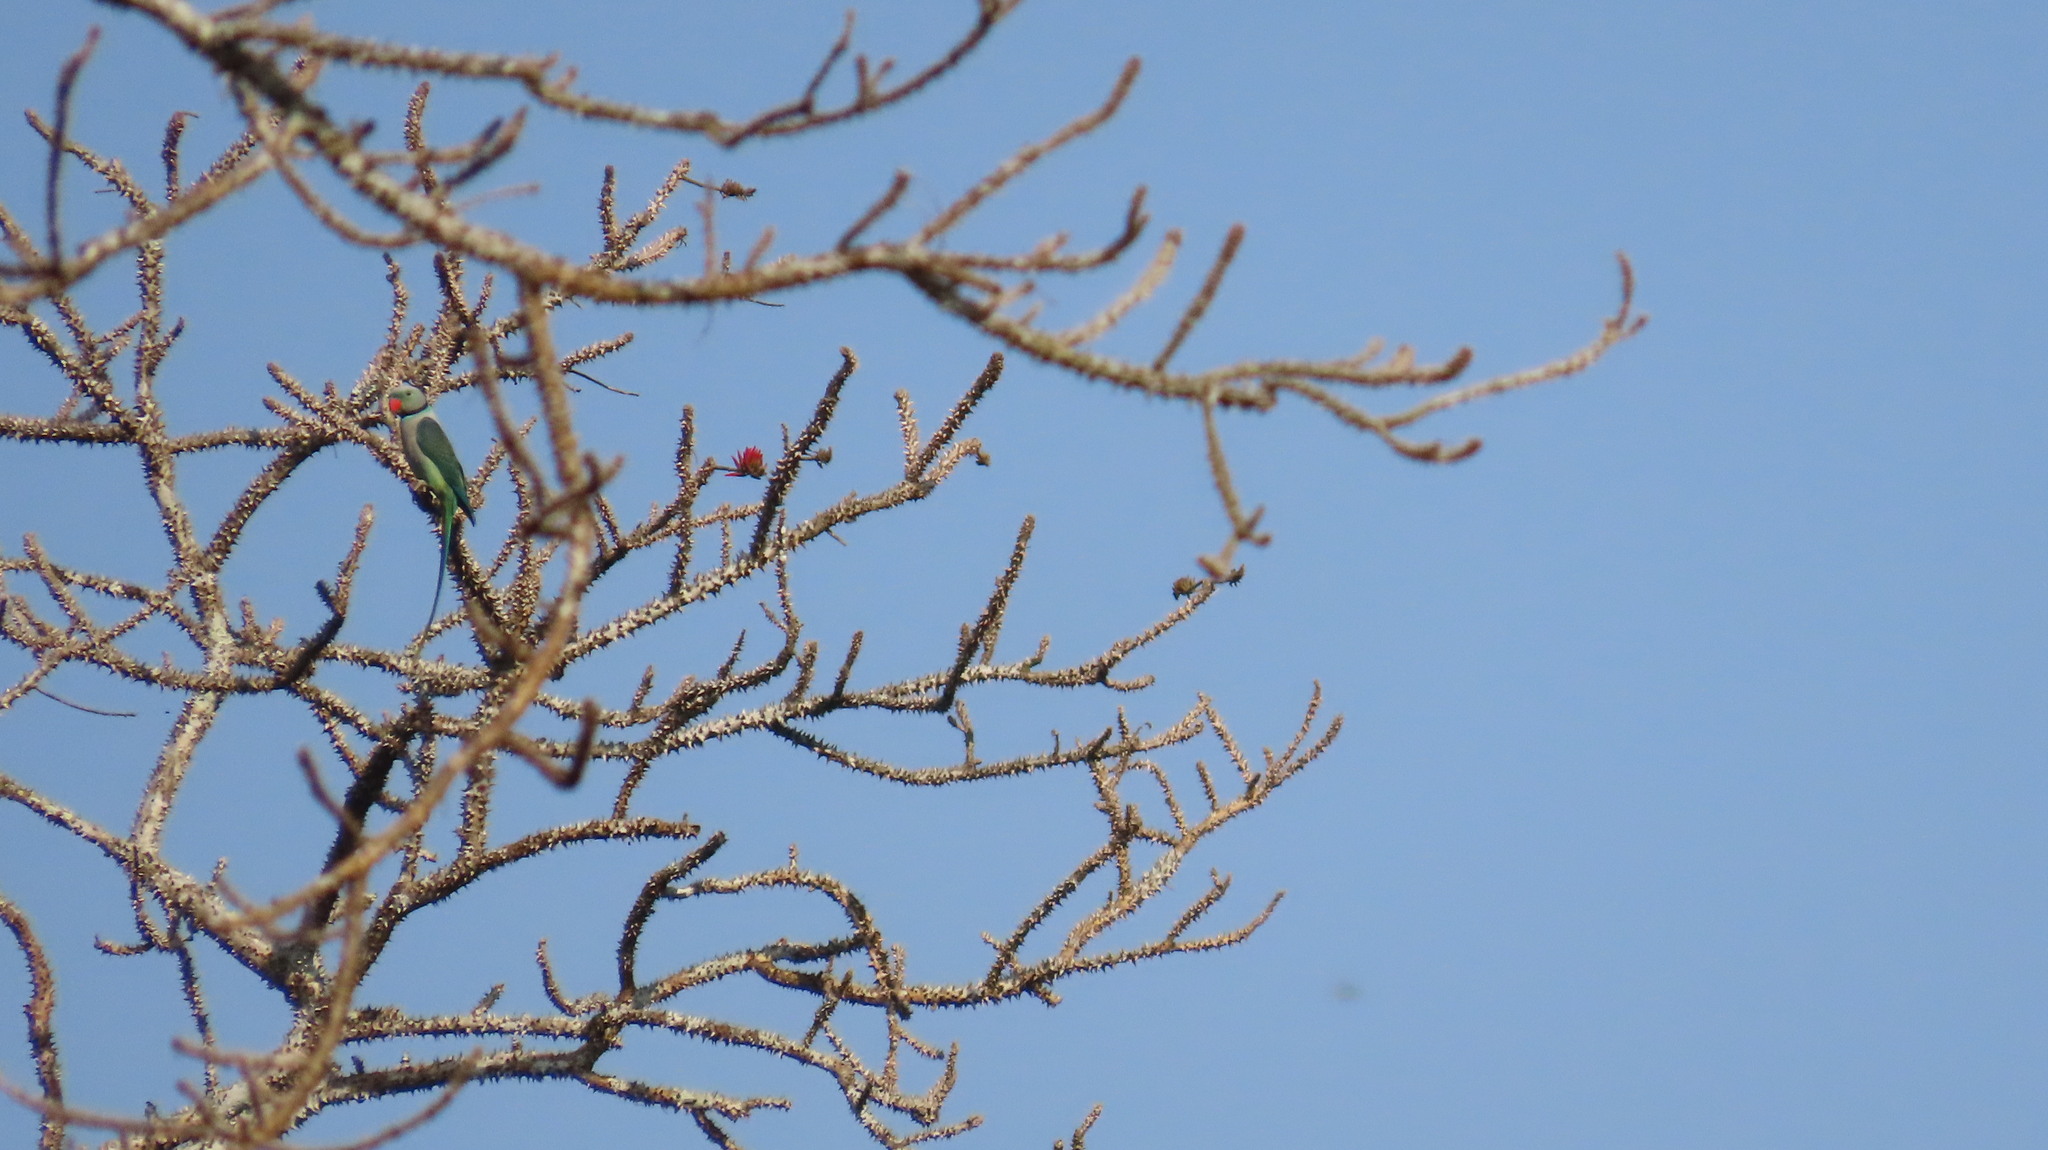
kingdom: Animalia
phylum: Chordata
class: Aves
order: Psittaciformes
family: Psittacidae
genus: Psittacula
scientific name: Psittacula columboides
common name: Blue-winged parakeet
